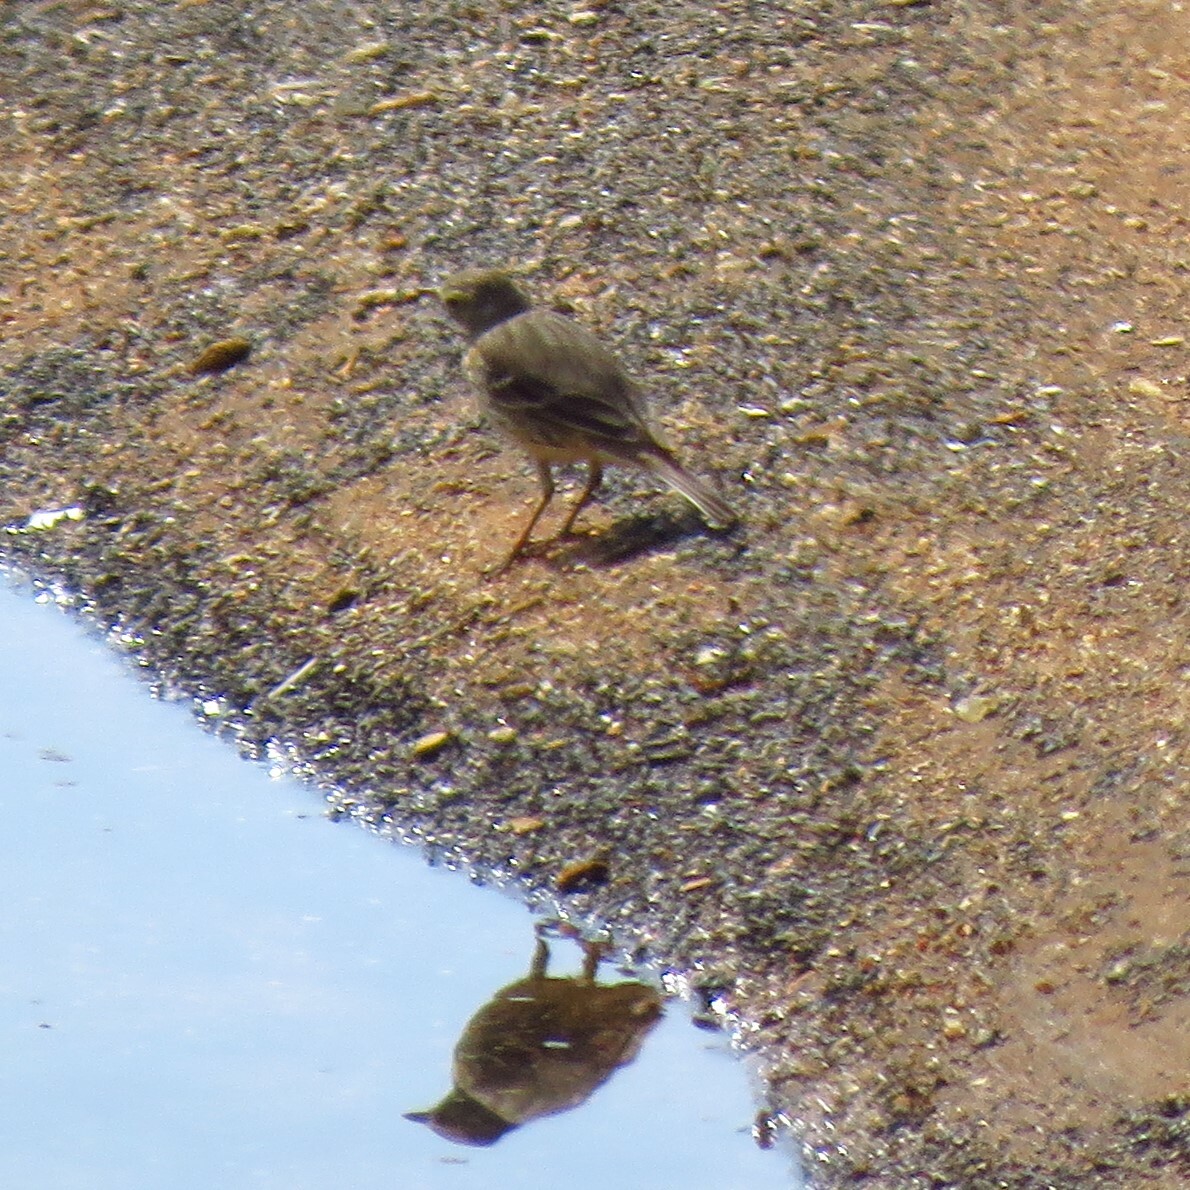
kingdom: Animalia
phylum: Chordata
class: Aves
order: Passeriformes
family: Motacillidae
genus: Anthus
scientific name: Anthus rubescens
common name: Buff-bellied pipit
